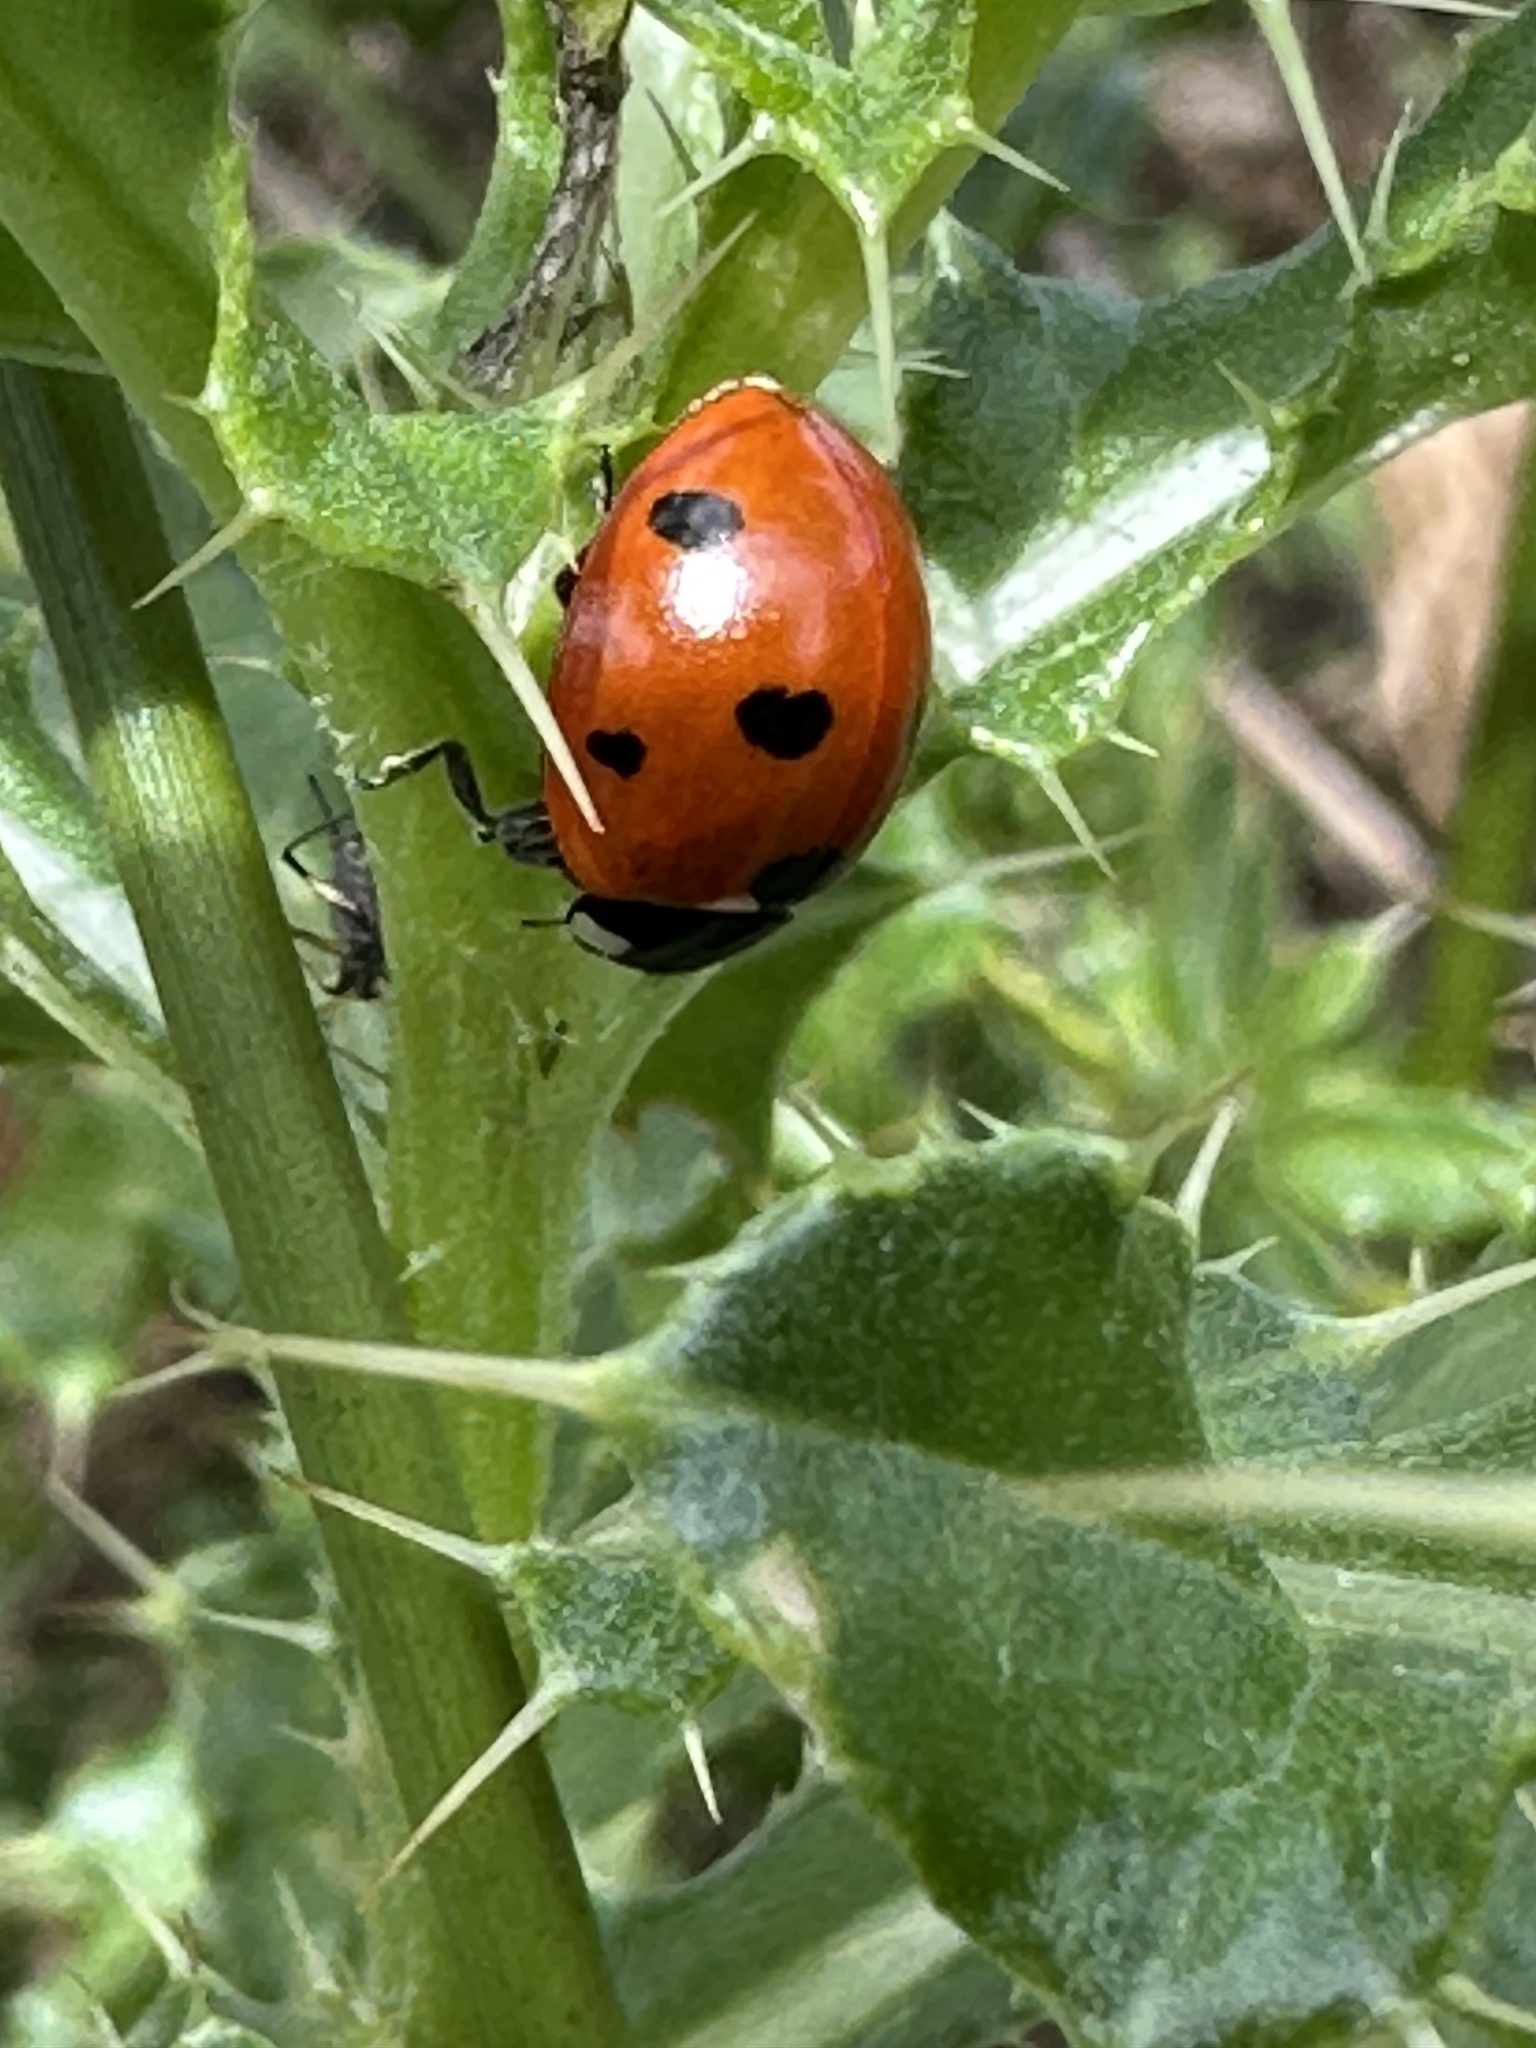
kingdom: Animalia
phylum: Arthropoda
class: Insecta
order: Coleoptera
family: Coccinellidae
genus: Coccinella
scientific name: Coccinella septempunctata
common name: Sevenspotted lady beetle
